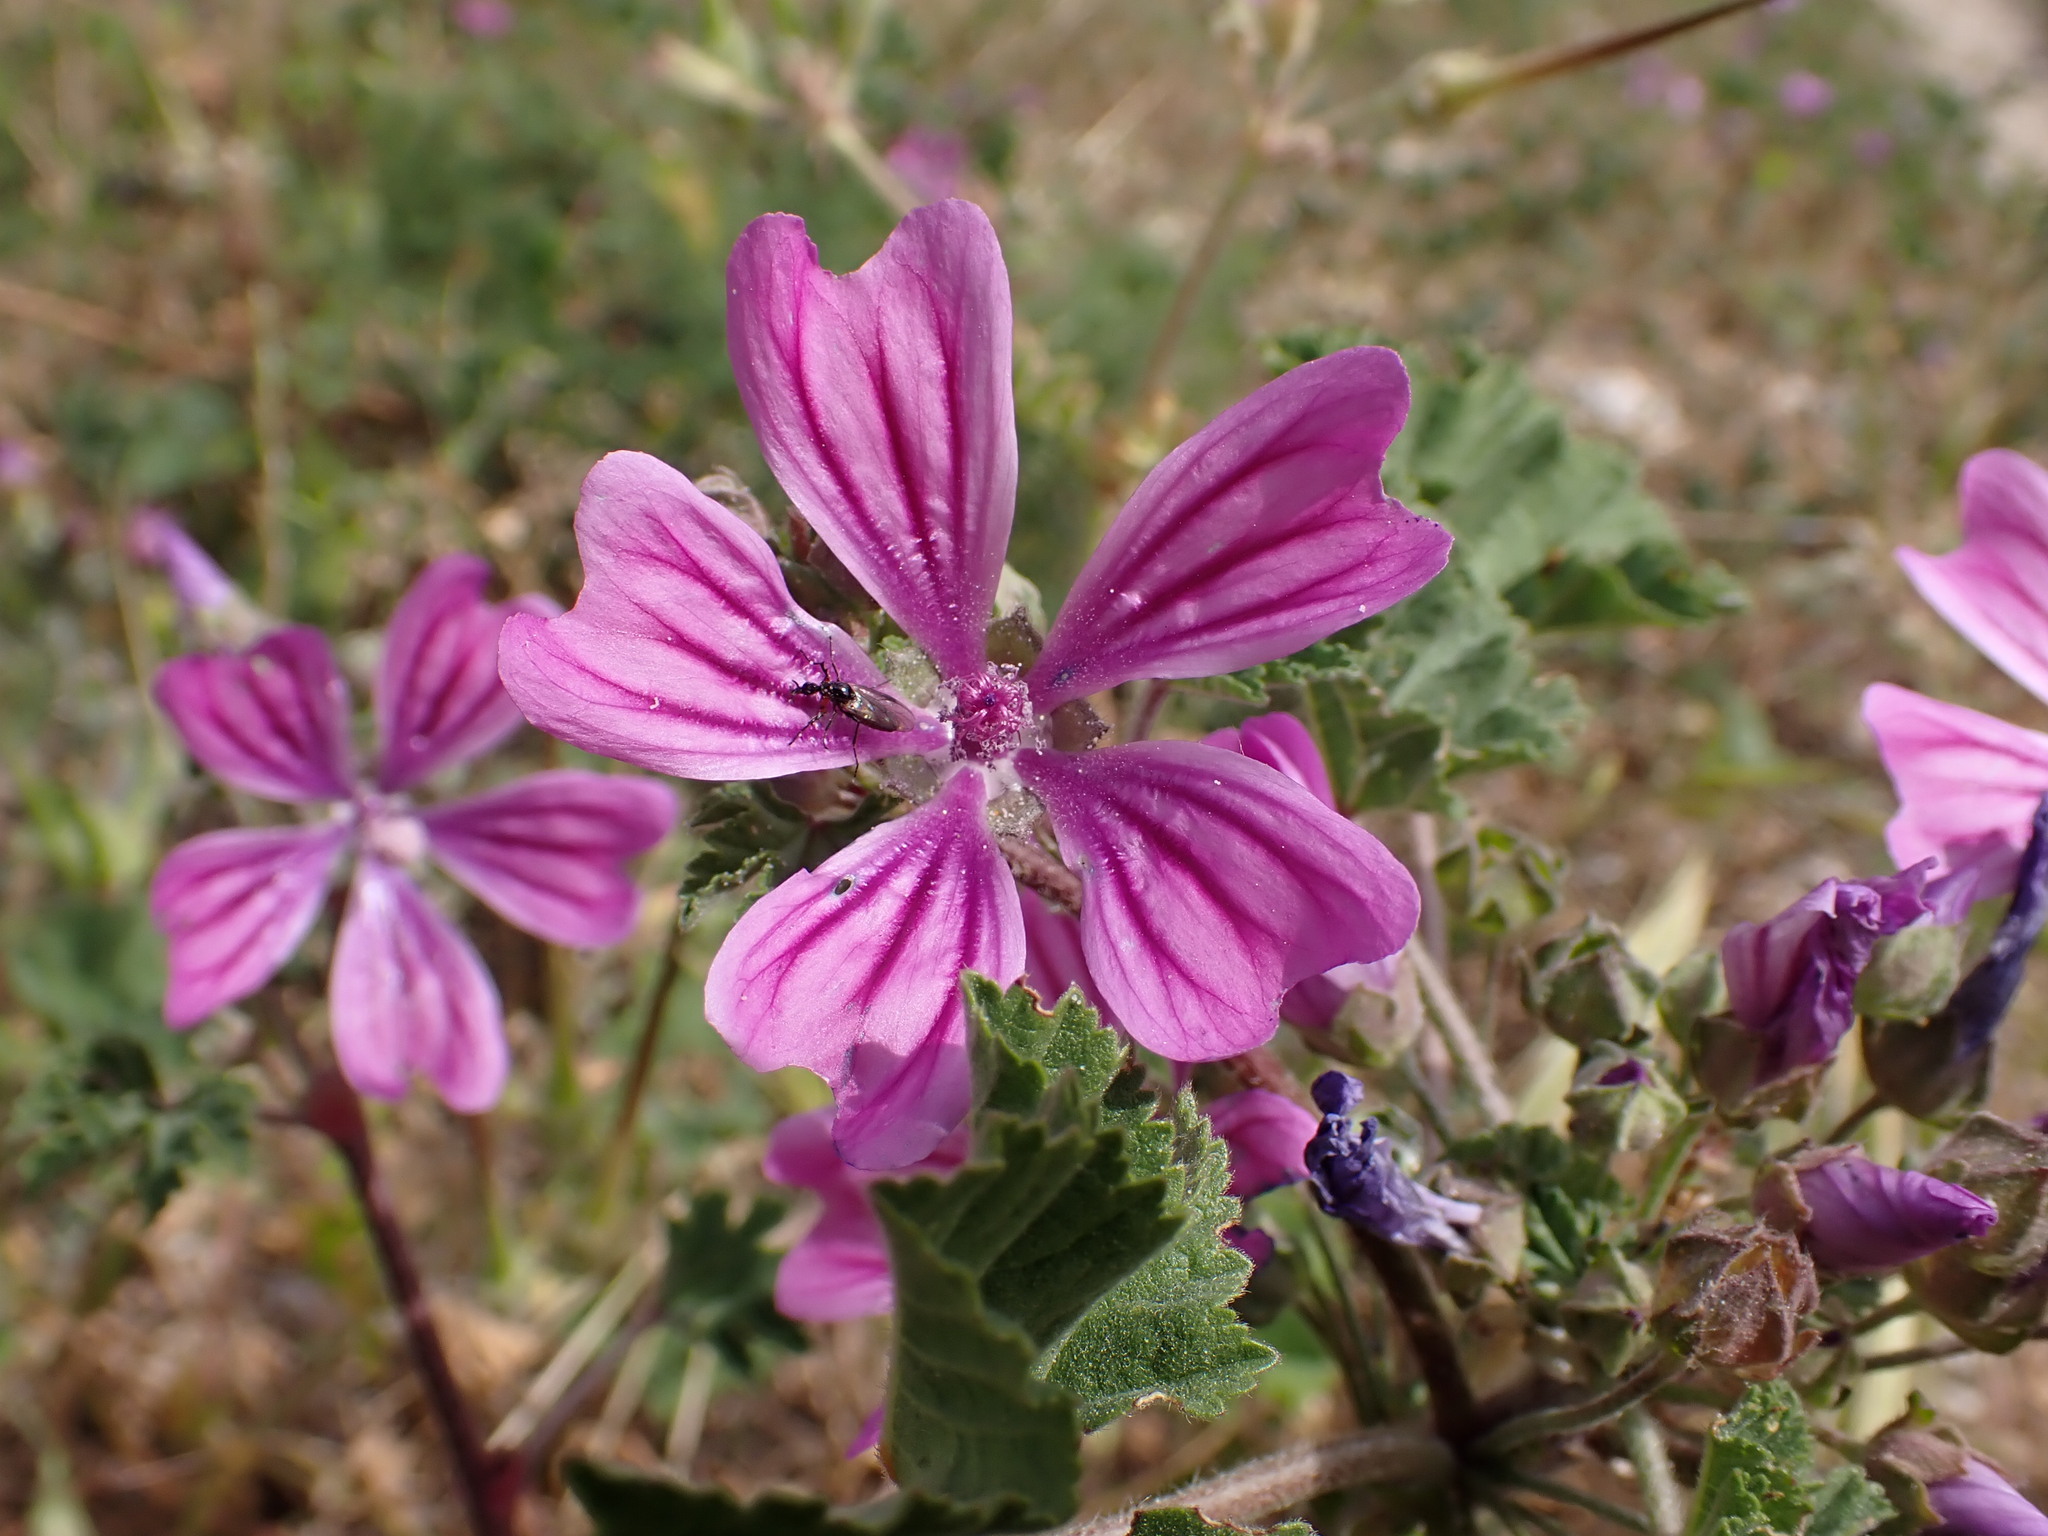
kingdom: Plantae
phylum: Tracheophyta
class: Magnoliopsida
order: Malvales
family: Malvaceae
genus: Malva
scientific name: Malva sylvestris
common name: Common mallow
